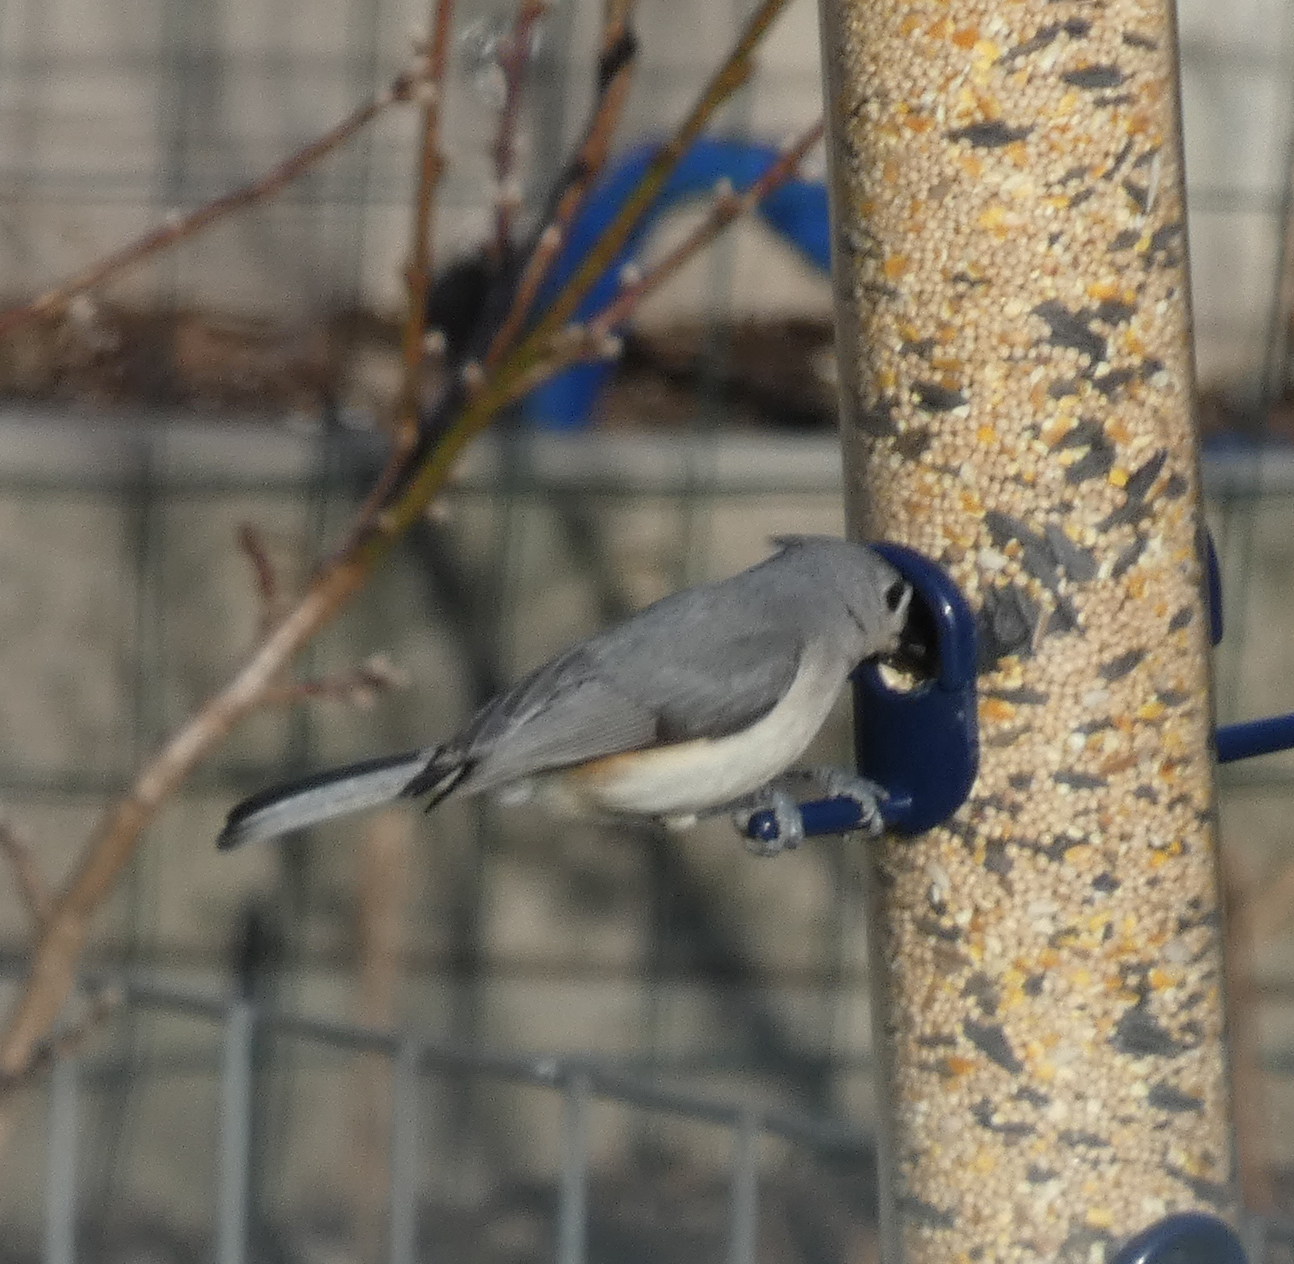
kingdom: Animalia
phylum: Chordata
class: Aves
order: Passeriformes
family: Paridae
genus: Baeolophus
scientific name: Baeolophus bicolor
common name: Tufted titmouse
